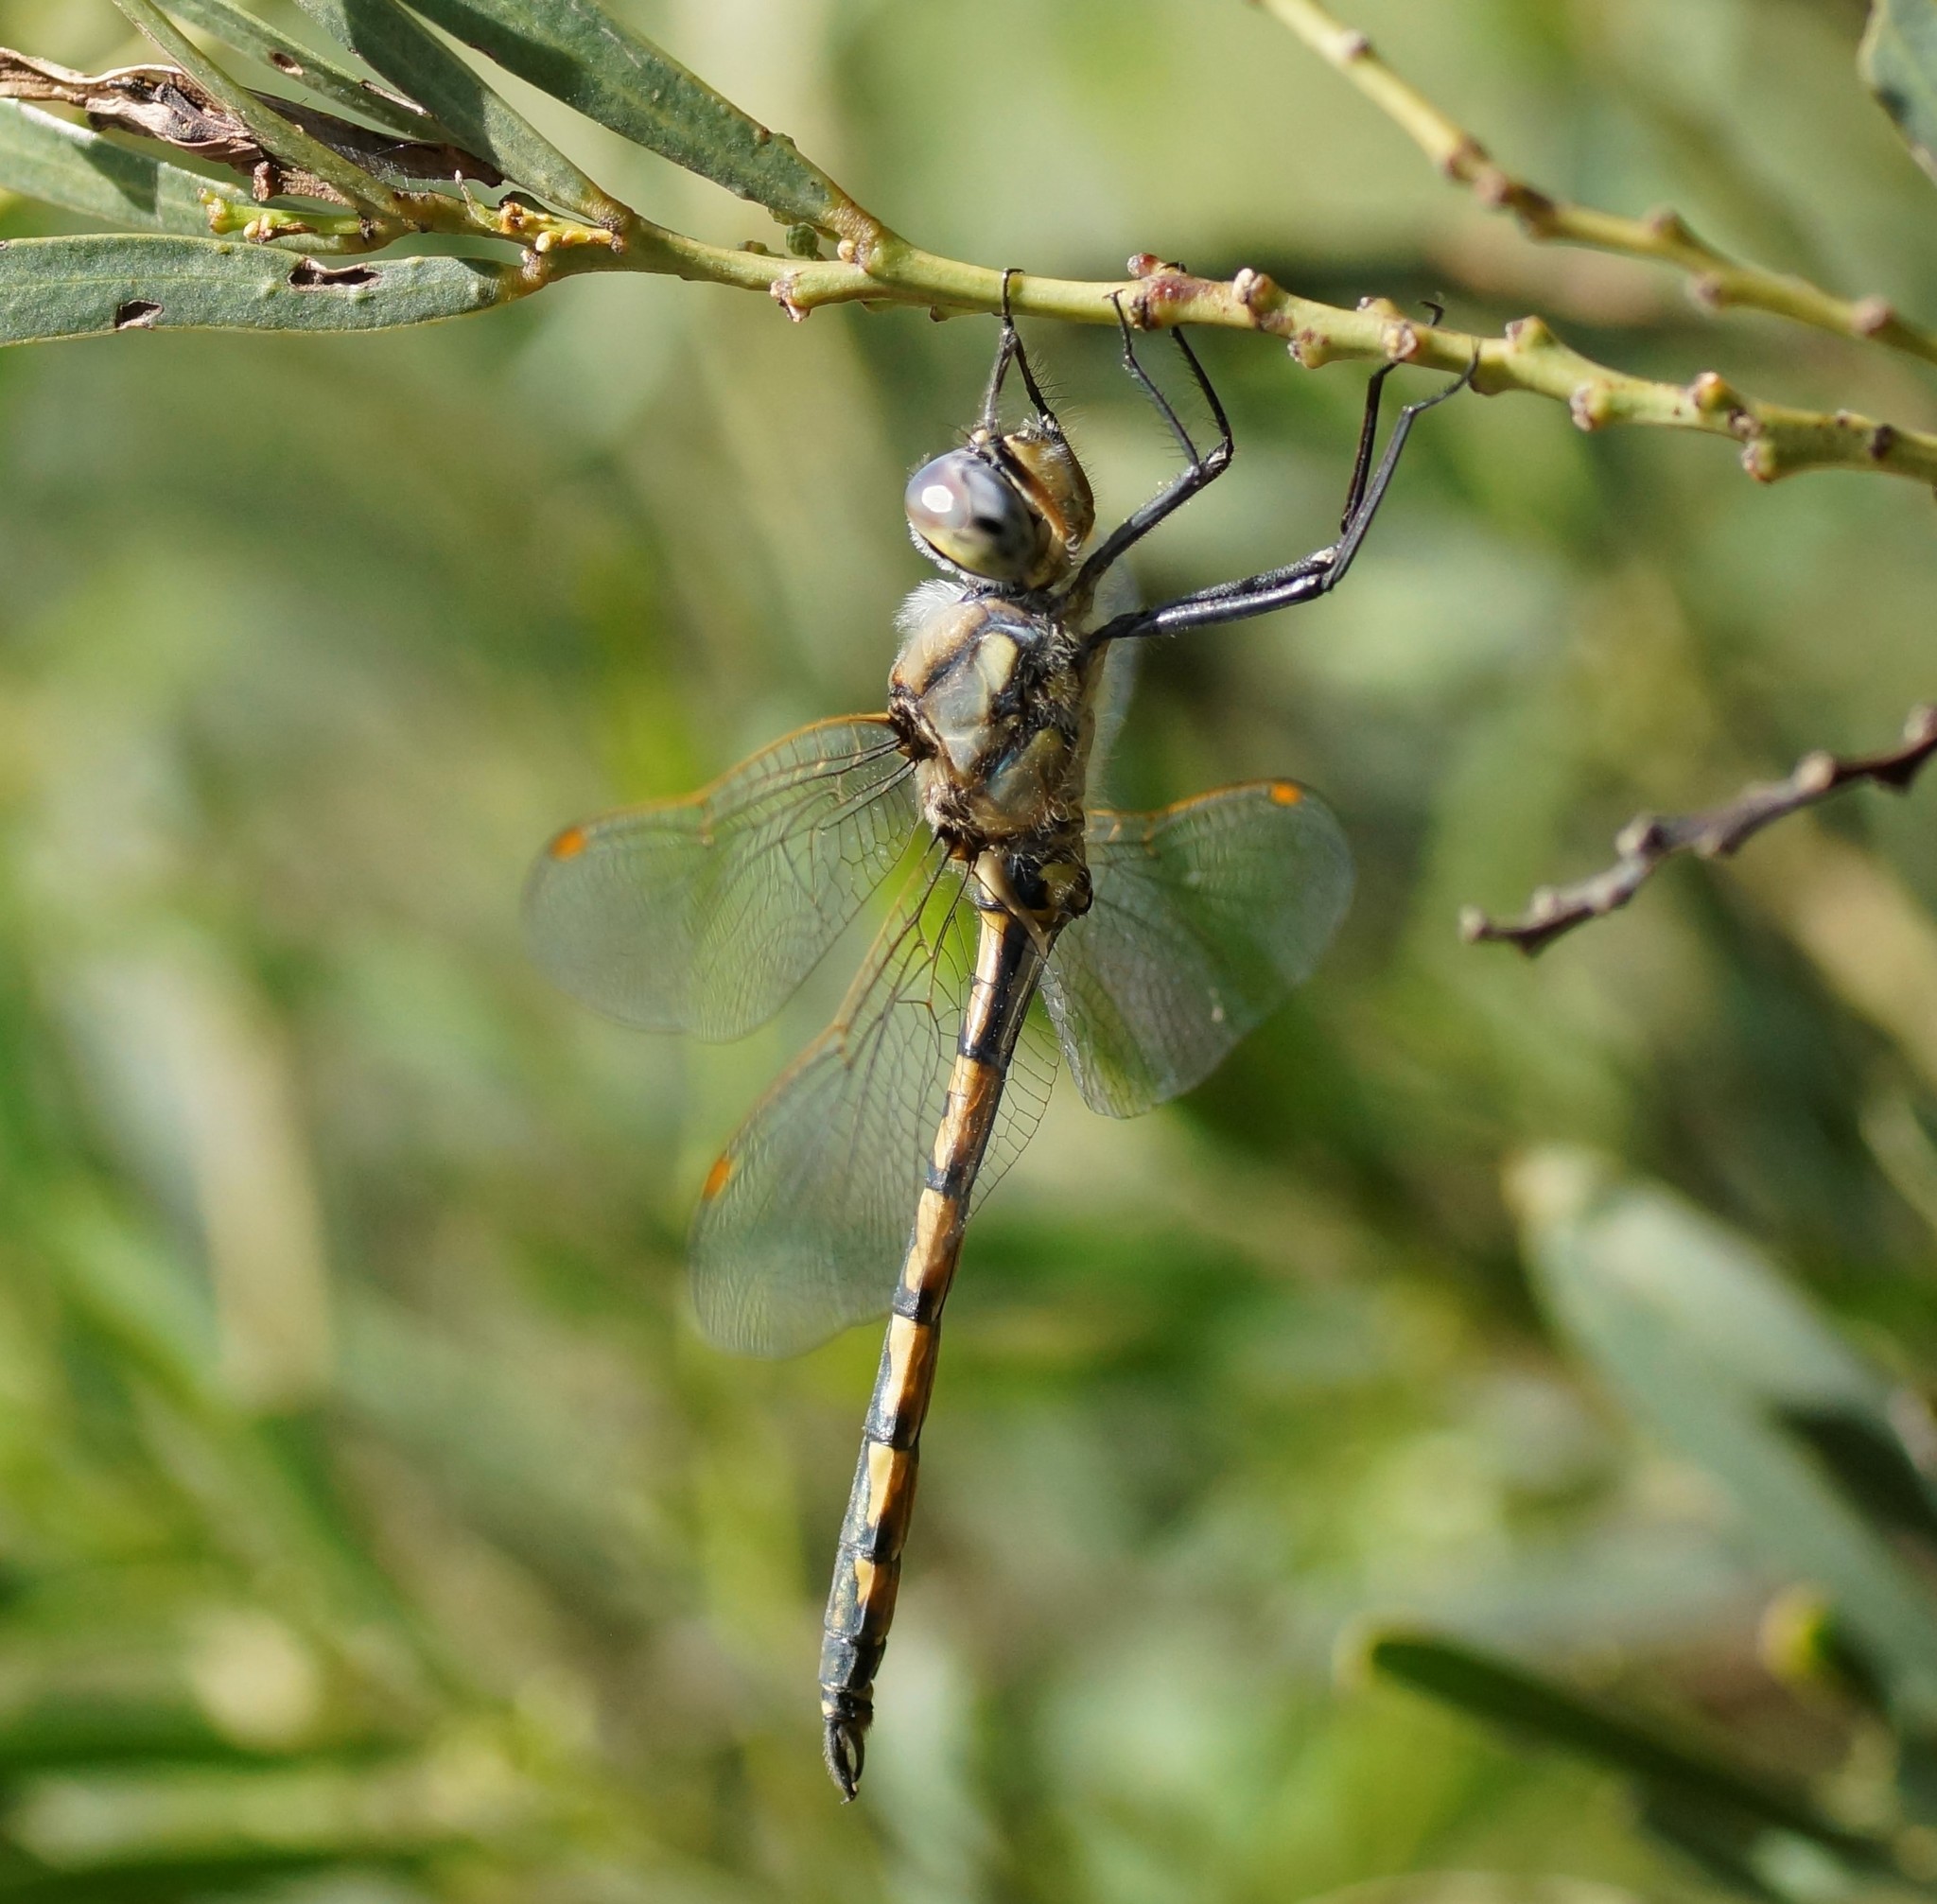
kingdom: Animalia
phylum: Arthropoda
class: Insecta
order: Odonata
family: Corduliidae
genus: Hemicordulia
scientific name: Hemicordulia tau
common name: Tau emerald
